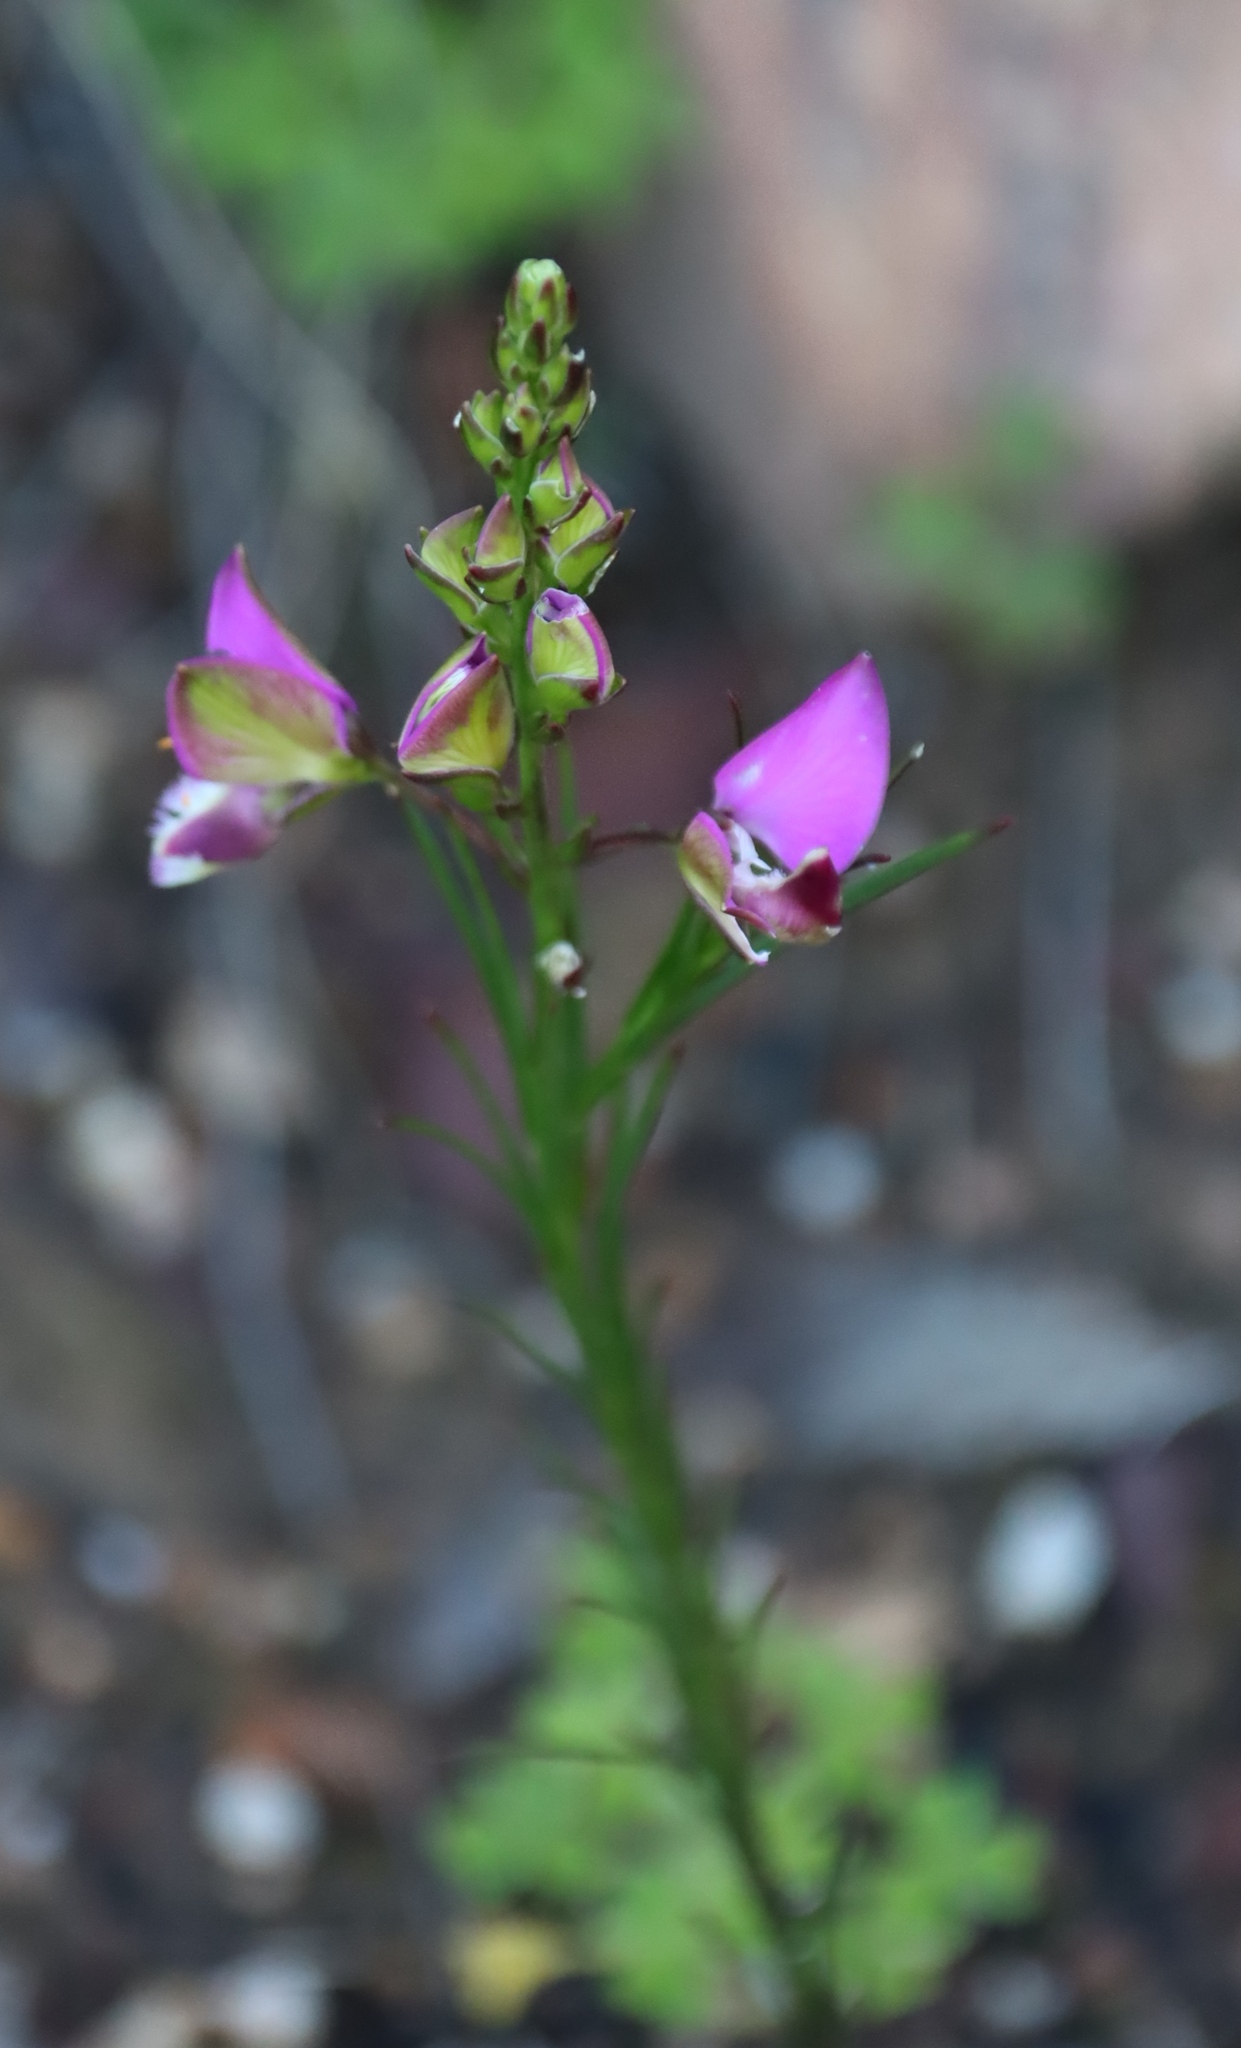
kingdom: Plantae
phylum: Tracheophyta
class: Magnoliopsida
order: Fabales
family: Polygalaceae
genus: Polygala
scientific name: Polygala bracteolata
